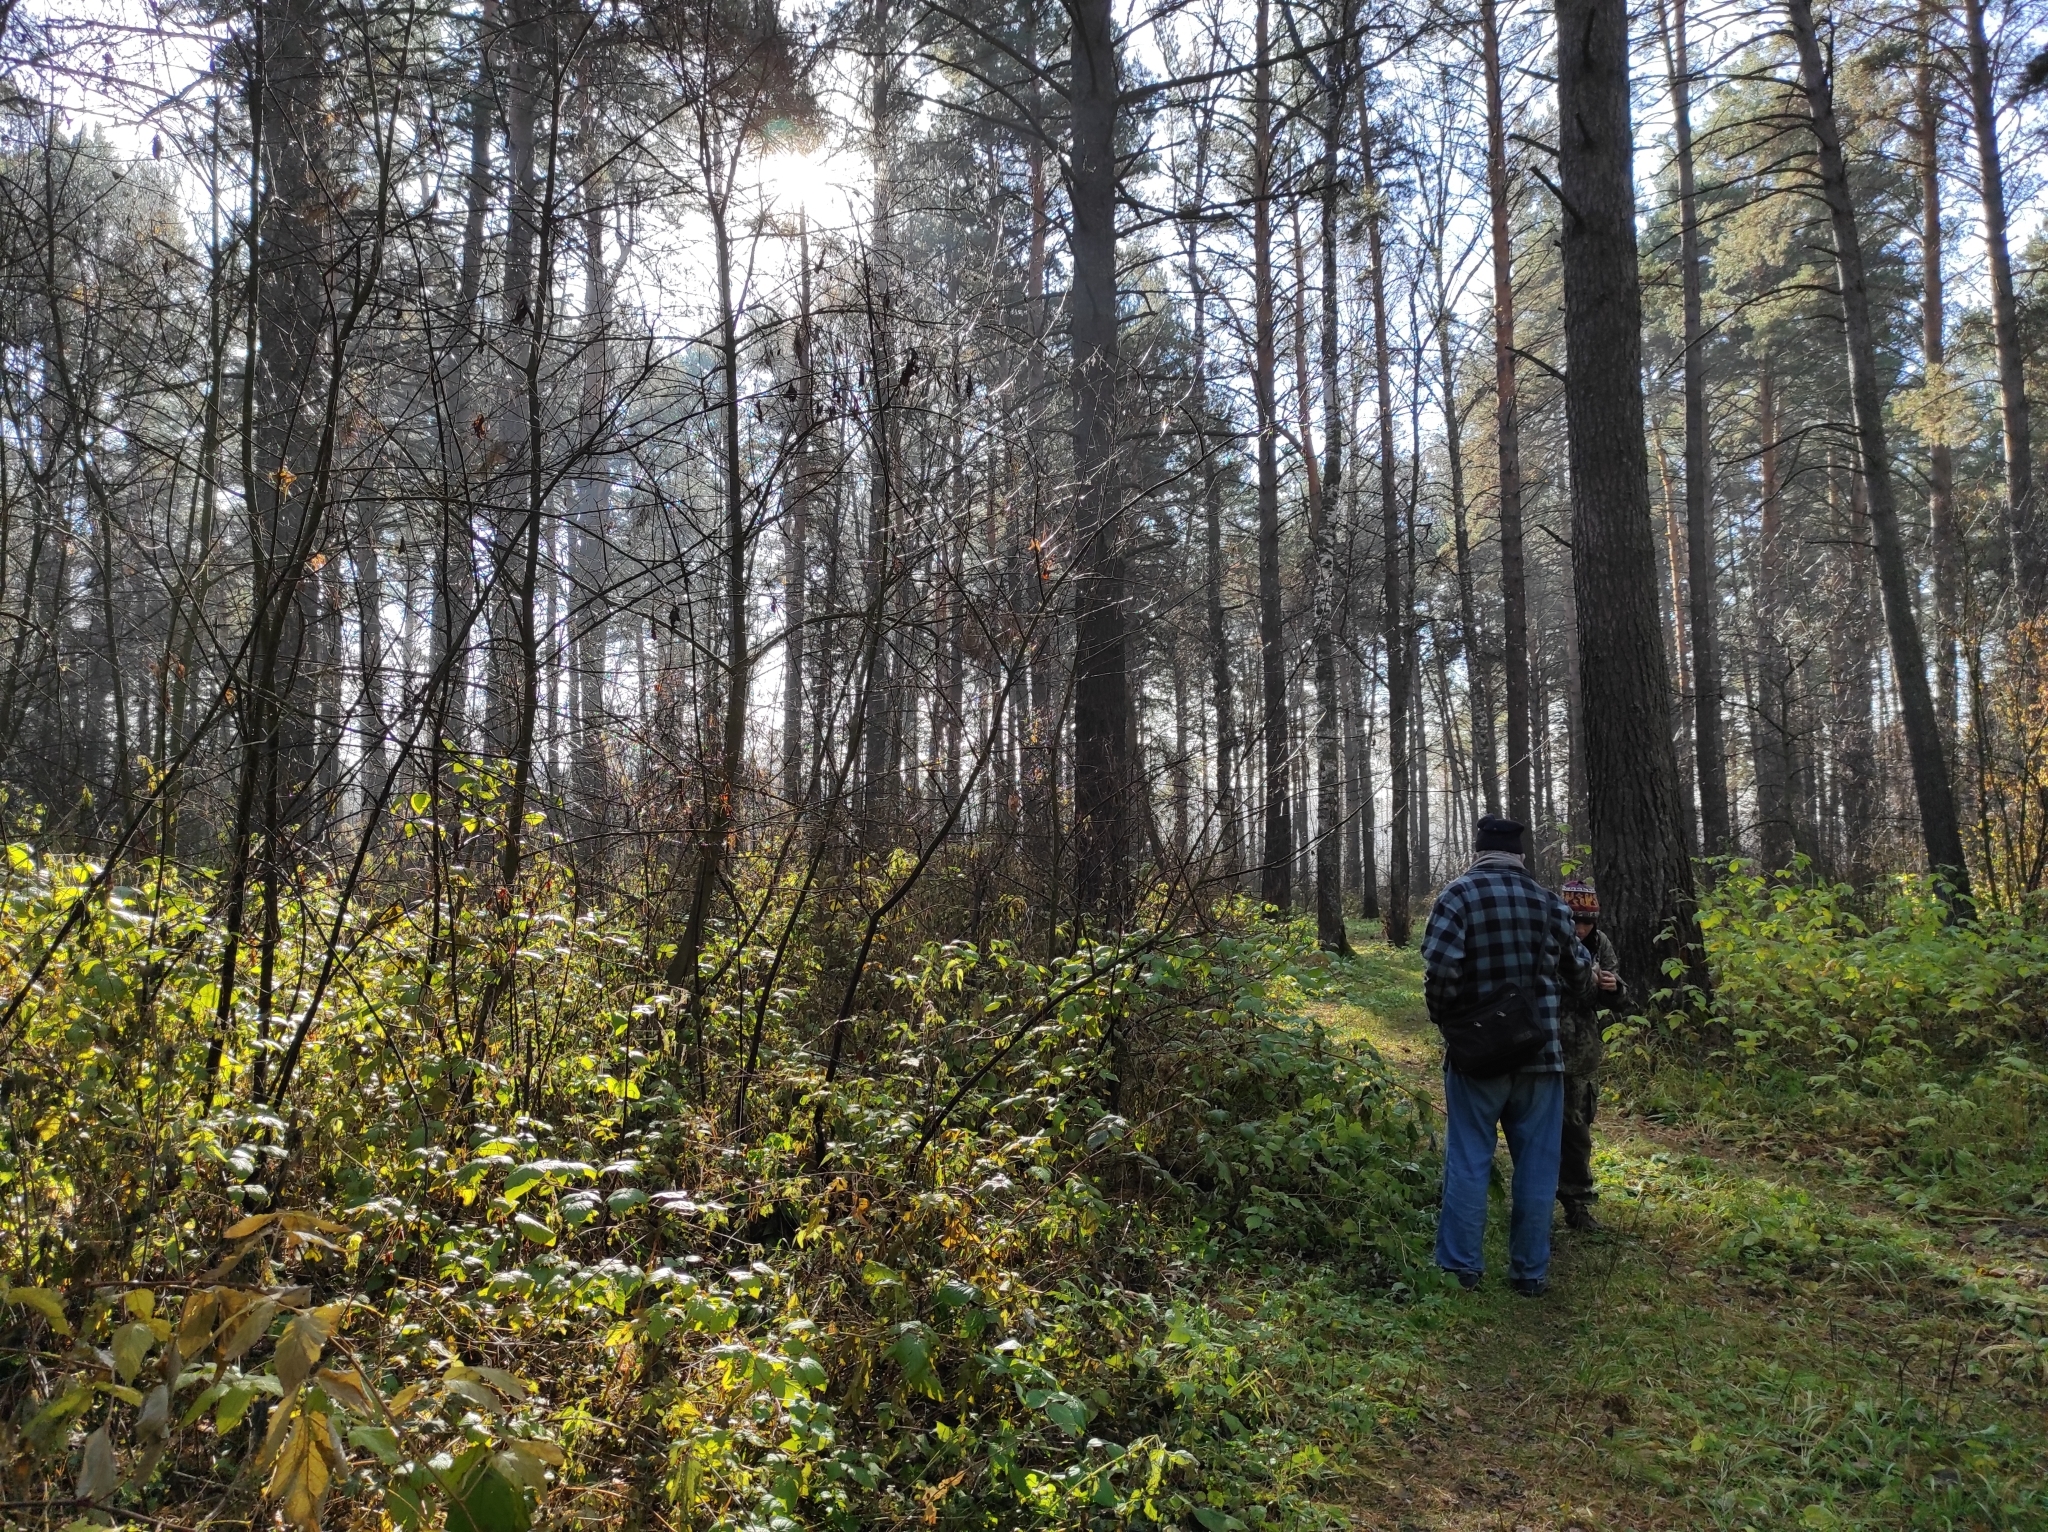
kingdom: Plantae
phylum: Tracheophyta
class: Pinopsida
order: Pinales
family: Pinaceae
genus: Pinus
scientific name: Pinus sylvestris
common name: Scots pine
